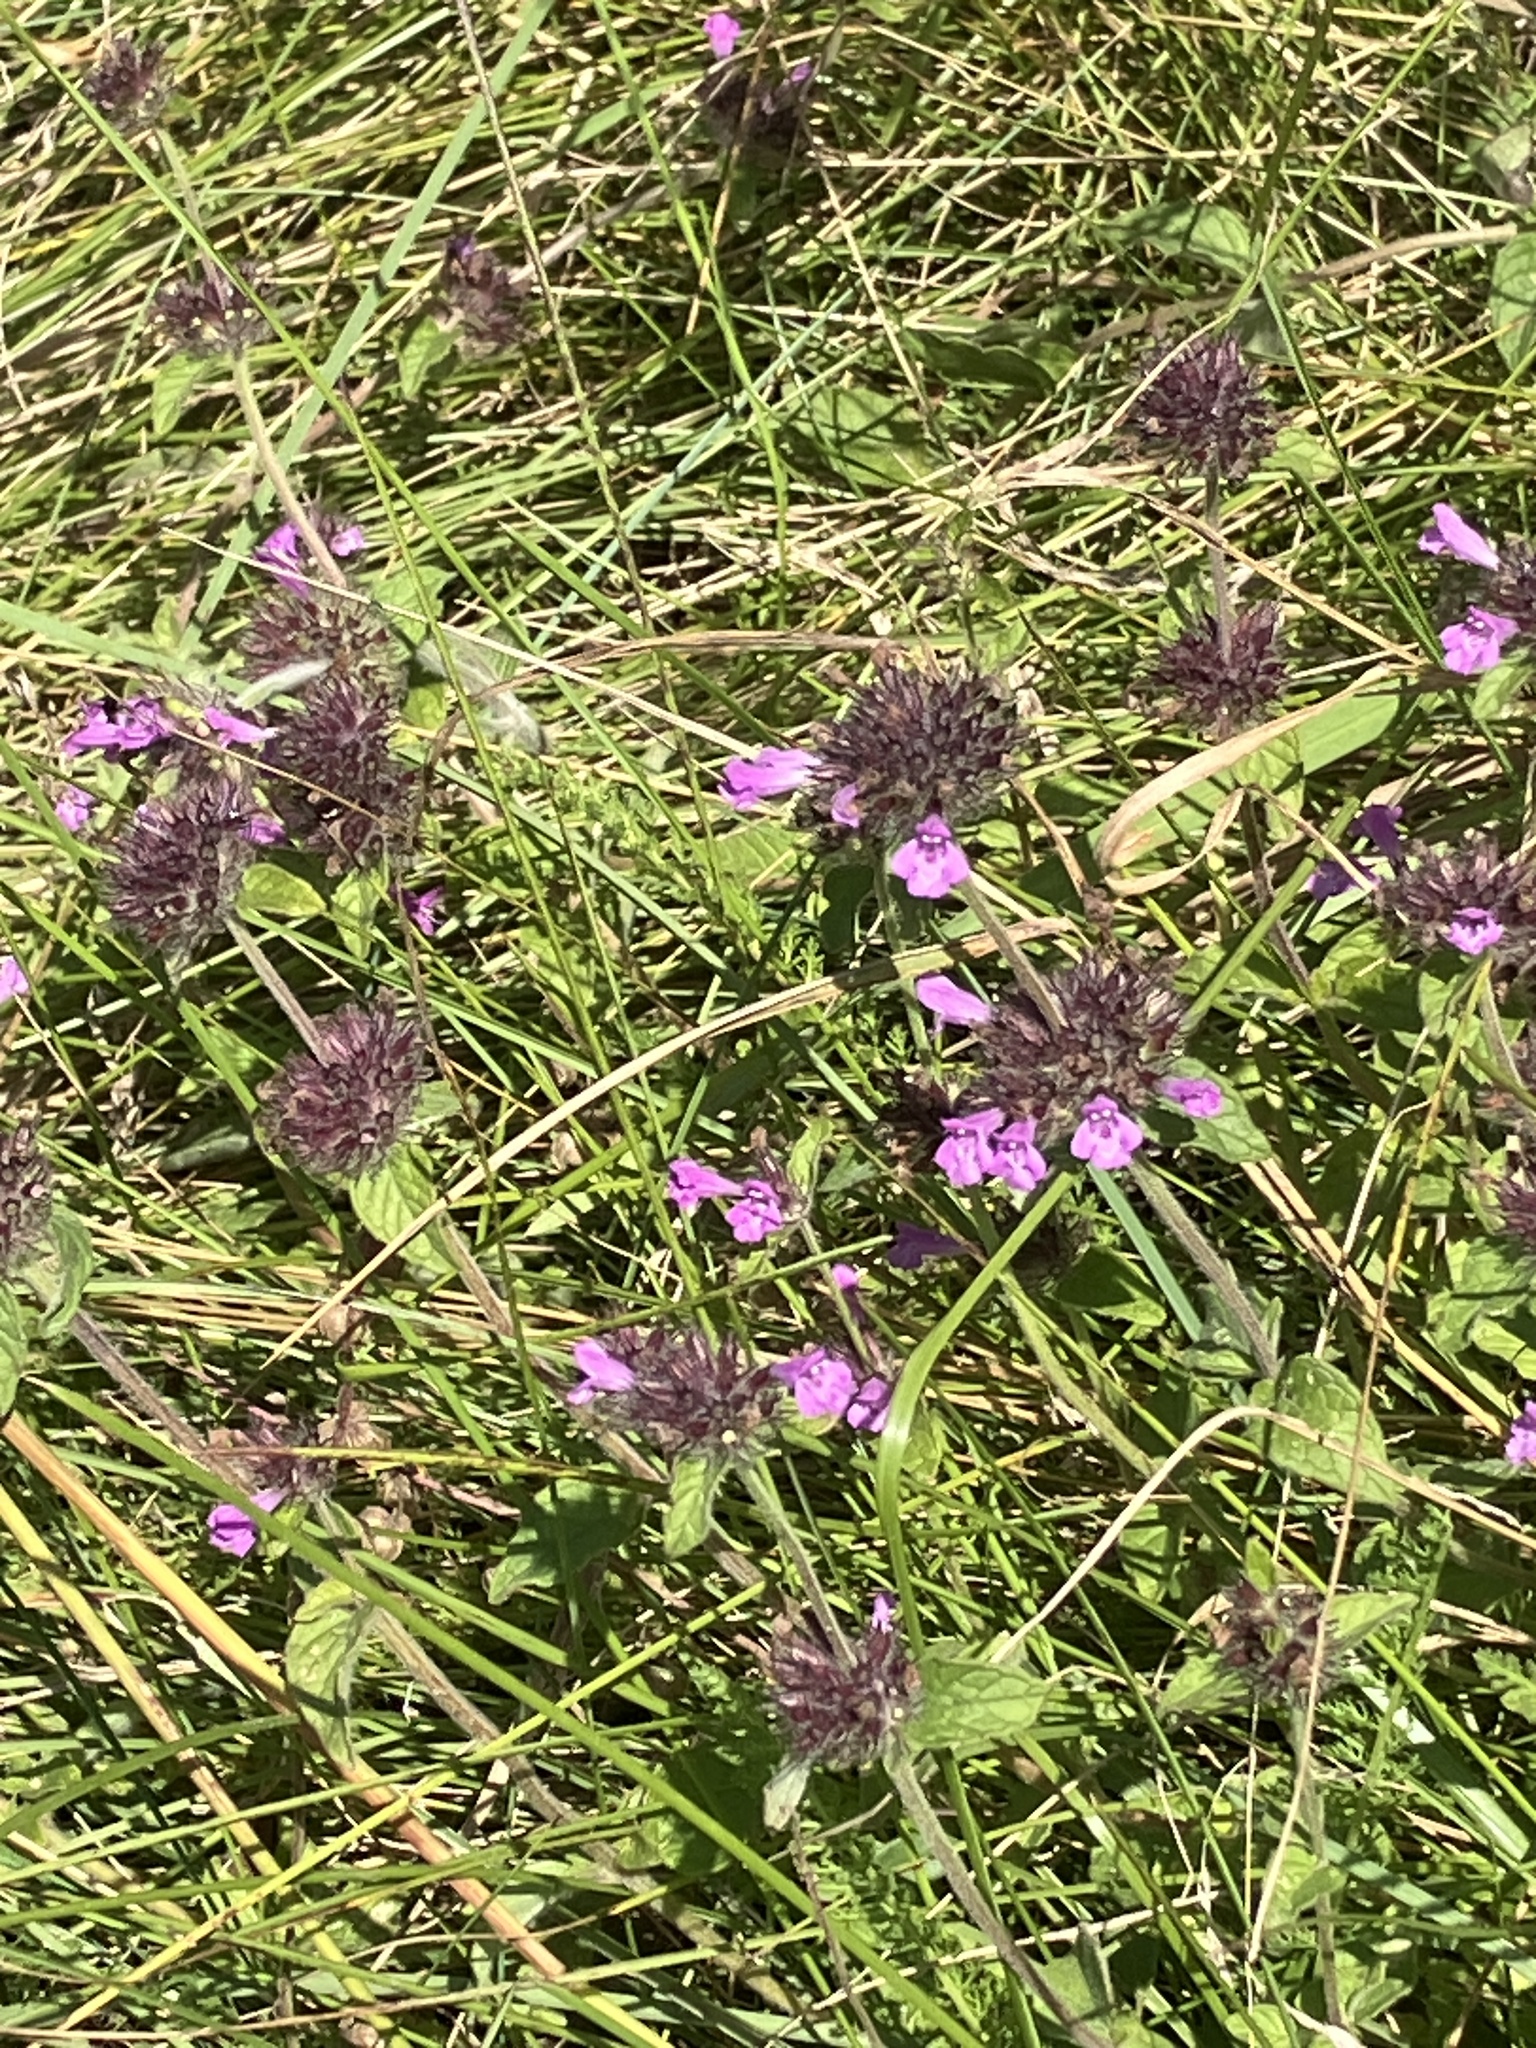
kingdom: Plantae
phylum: Tracheophyta
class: Magnoliopsida
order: Lamiales
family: Lamiaceae
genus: Clinopodium
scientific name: Clinopodium vulgare
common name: Wild basil
